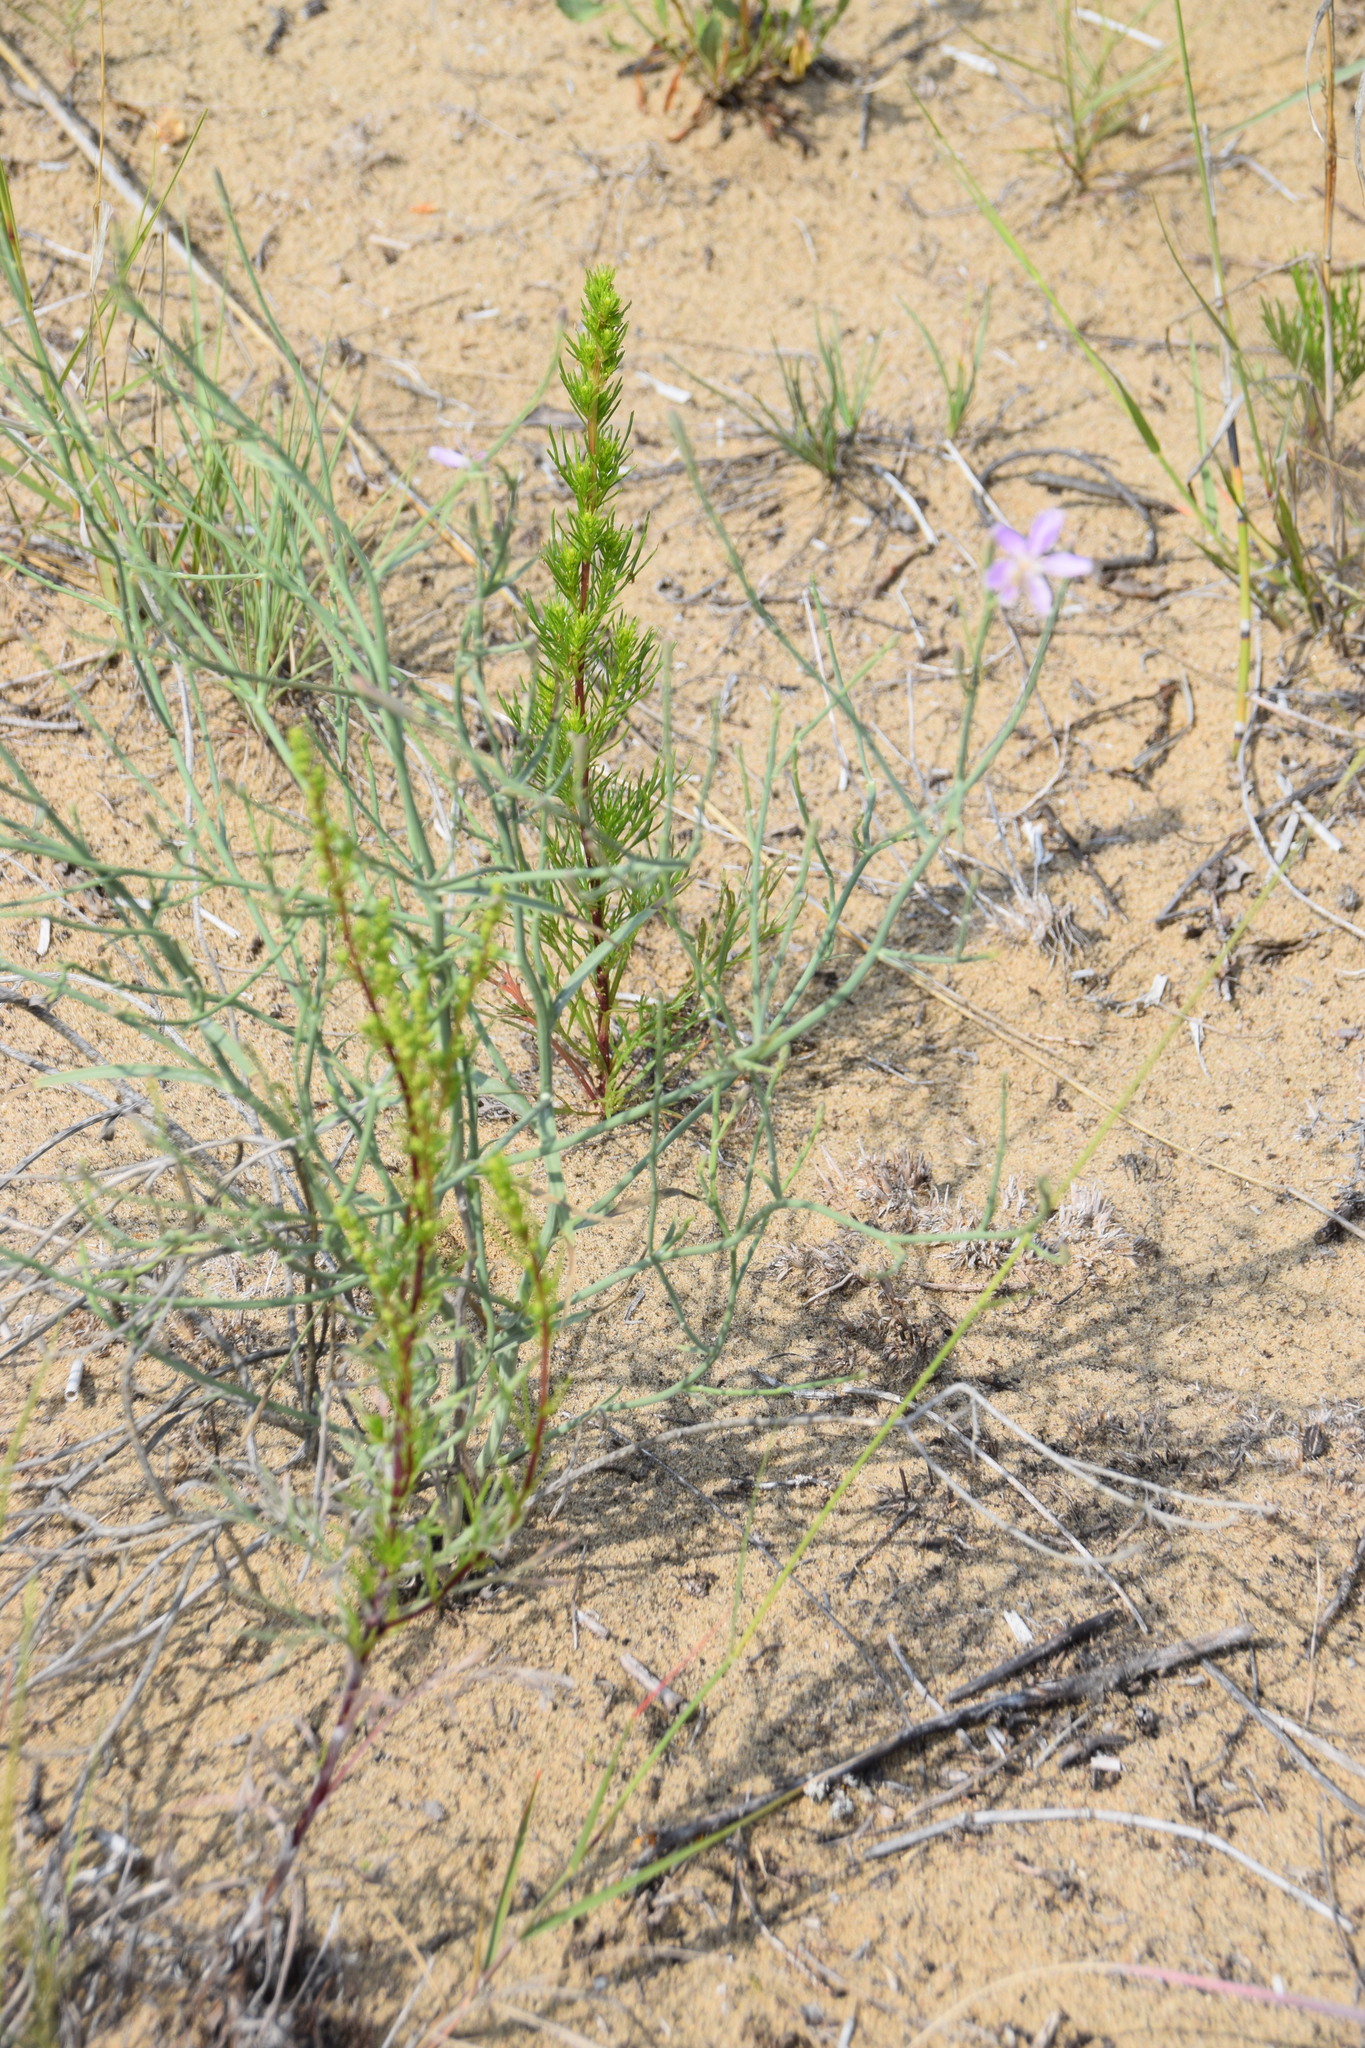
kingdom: Plantae
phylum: Tracheophyta
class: Magnoliopsida
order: Asterales
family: Asteraceae
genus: Lygodesmia
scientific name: Lygodesmia juncea
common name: Common skeletonweed
